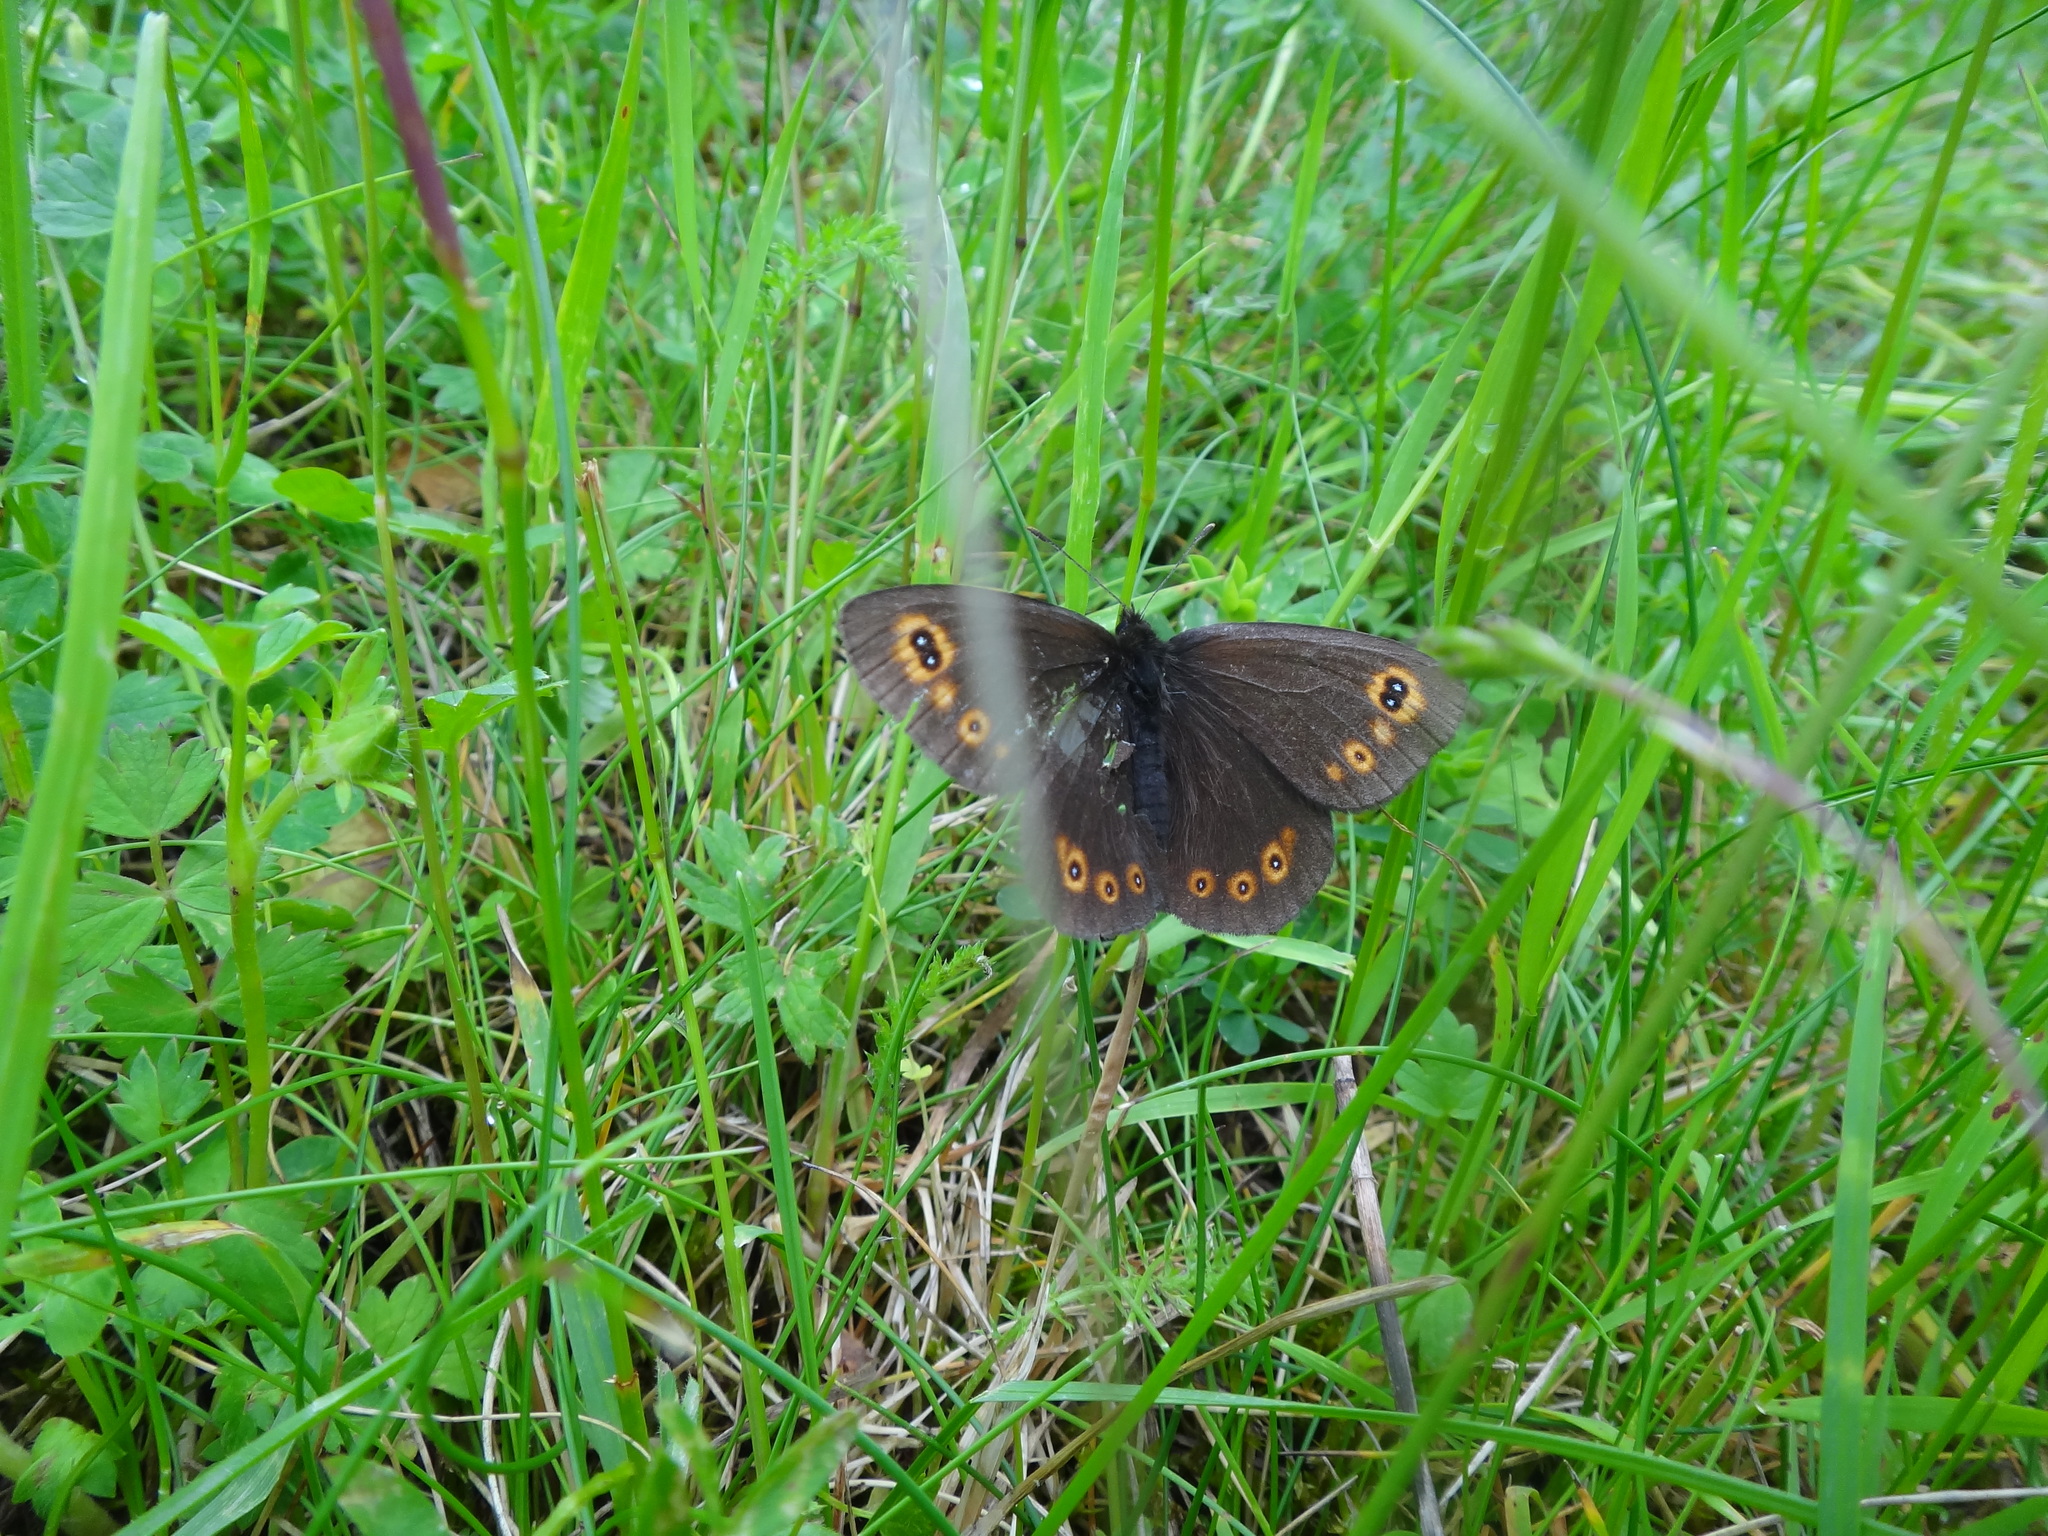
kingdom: Animalia
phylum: Arthropoda
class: Insecta
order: Lepidoptera
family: Nymphalidae
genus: Erebia
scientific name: Erebia medusa
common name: Woodland ringlet
